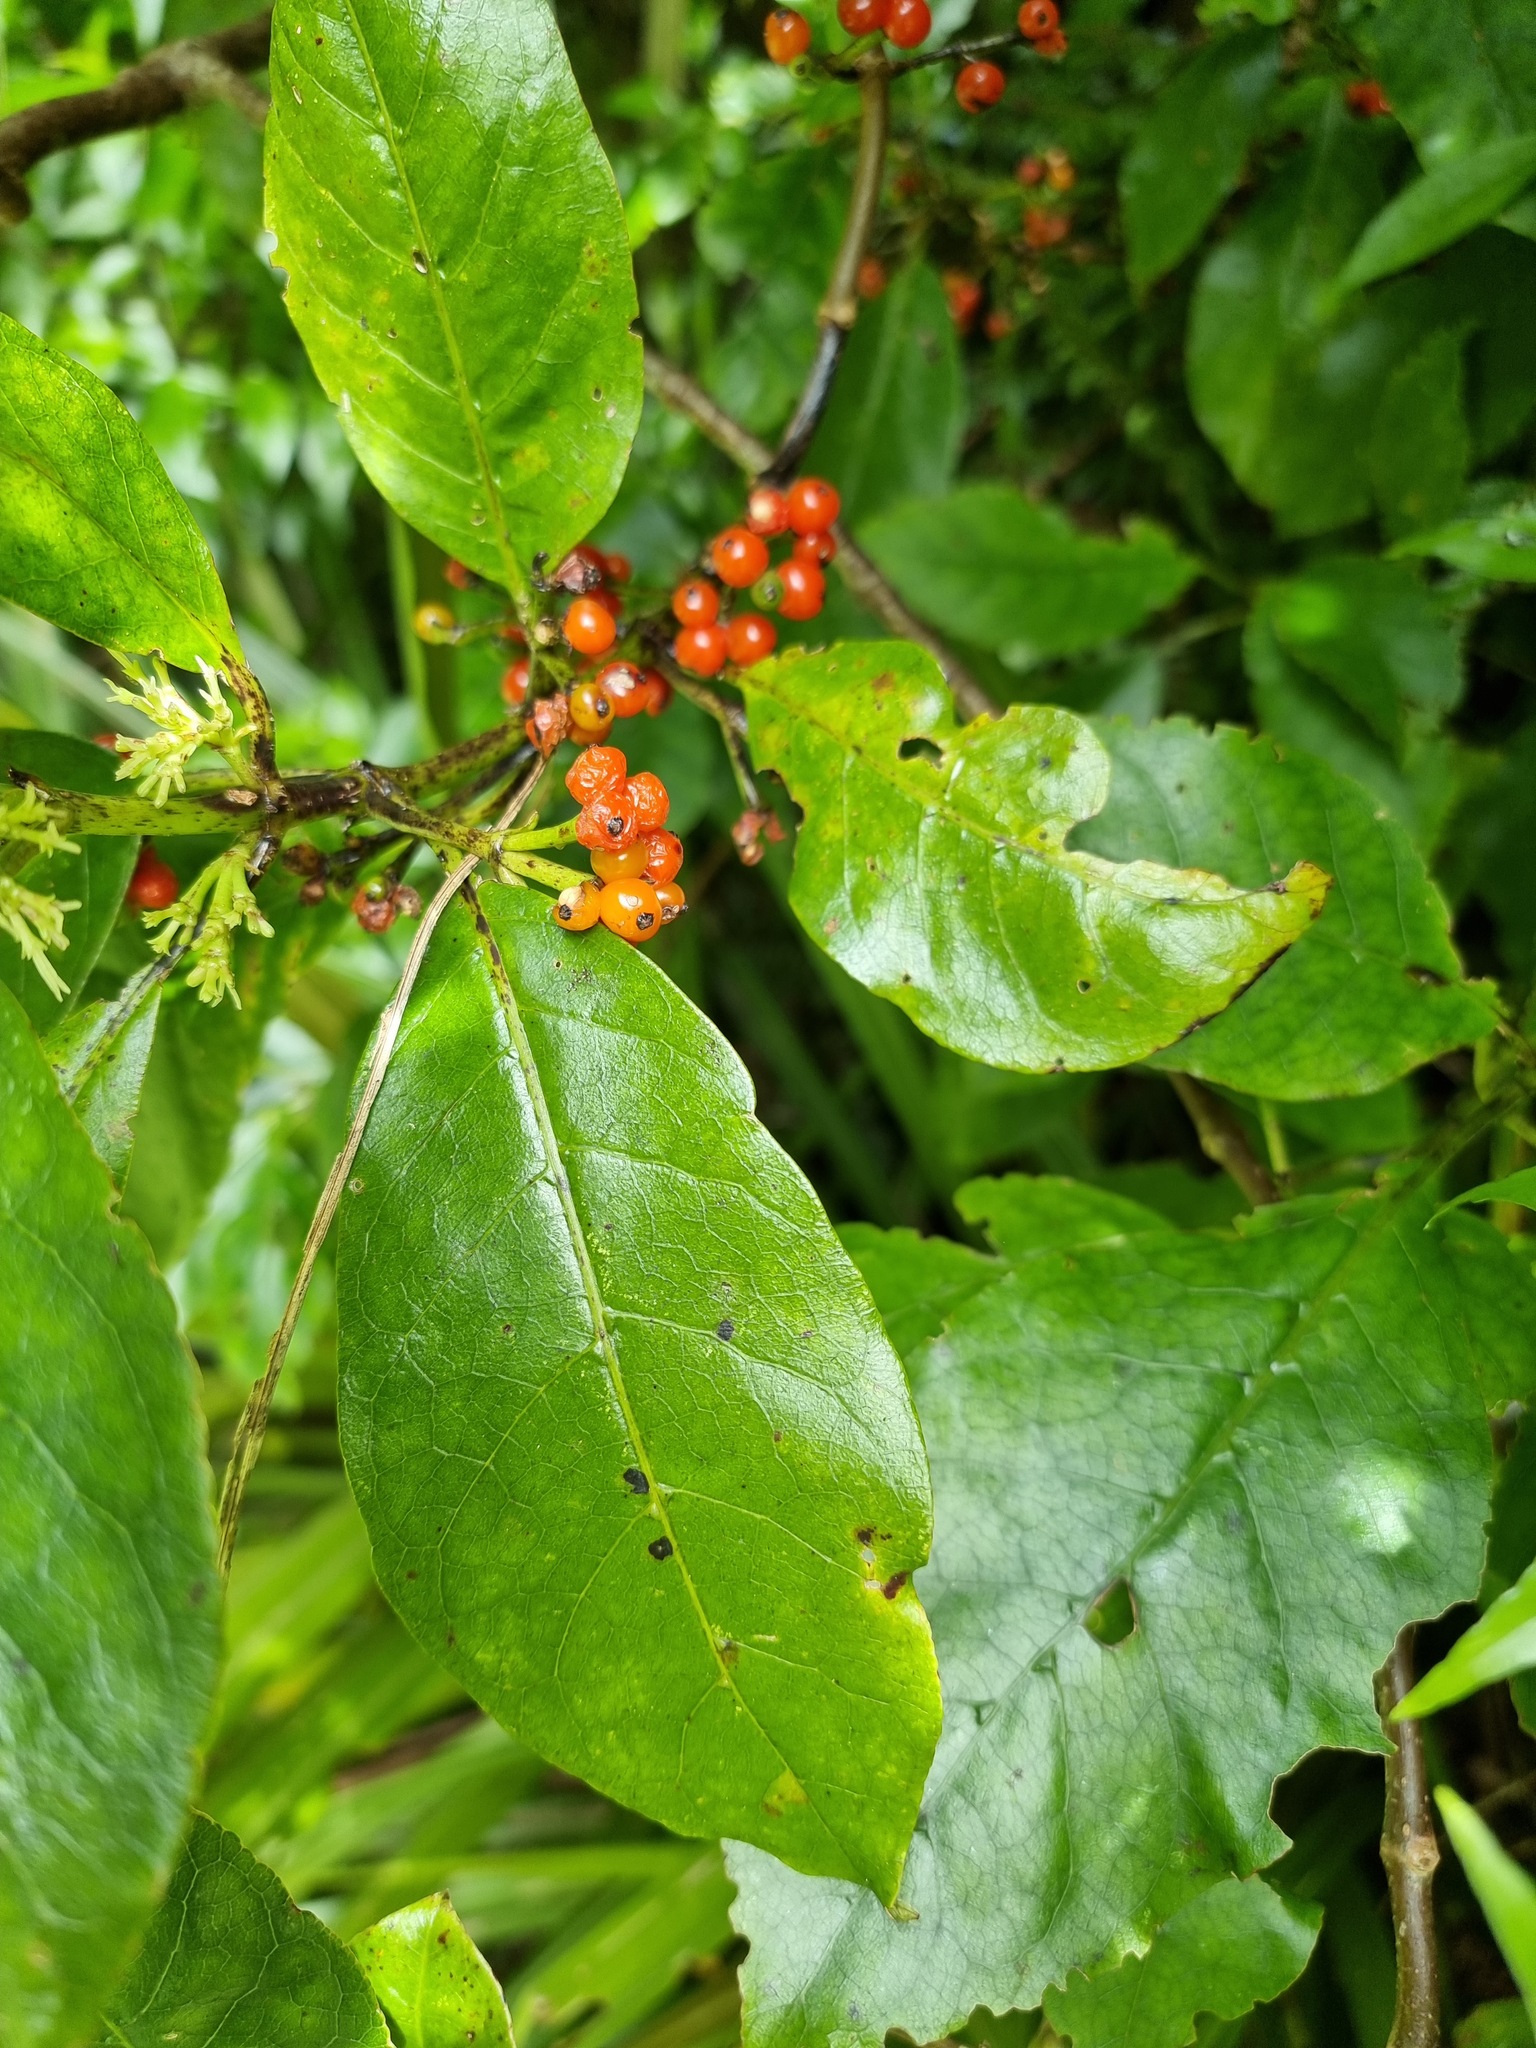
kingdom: Plantae
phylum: Tracheophyta
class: Magnoliopsida
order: Gentianales
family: Rubiaceae
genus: Coprosma
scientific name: Coprosma autumnalis
